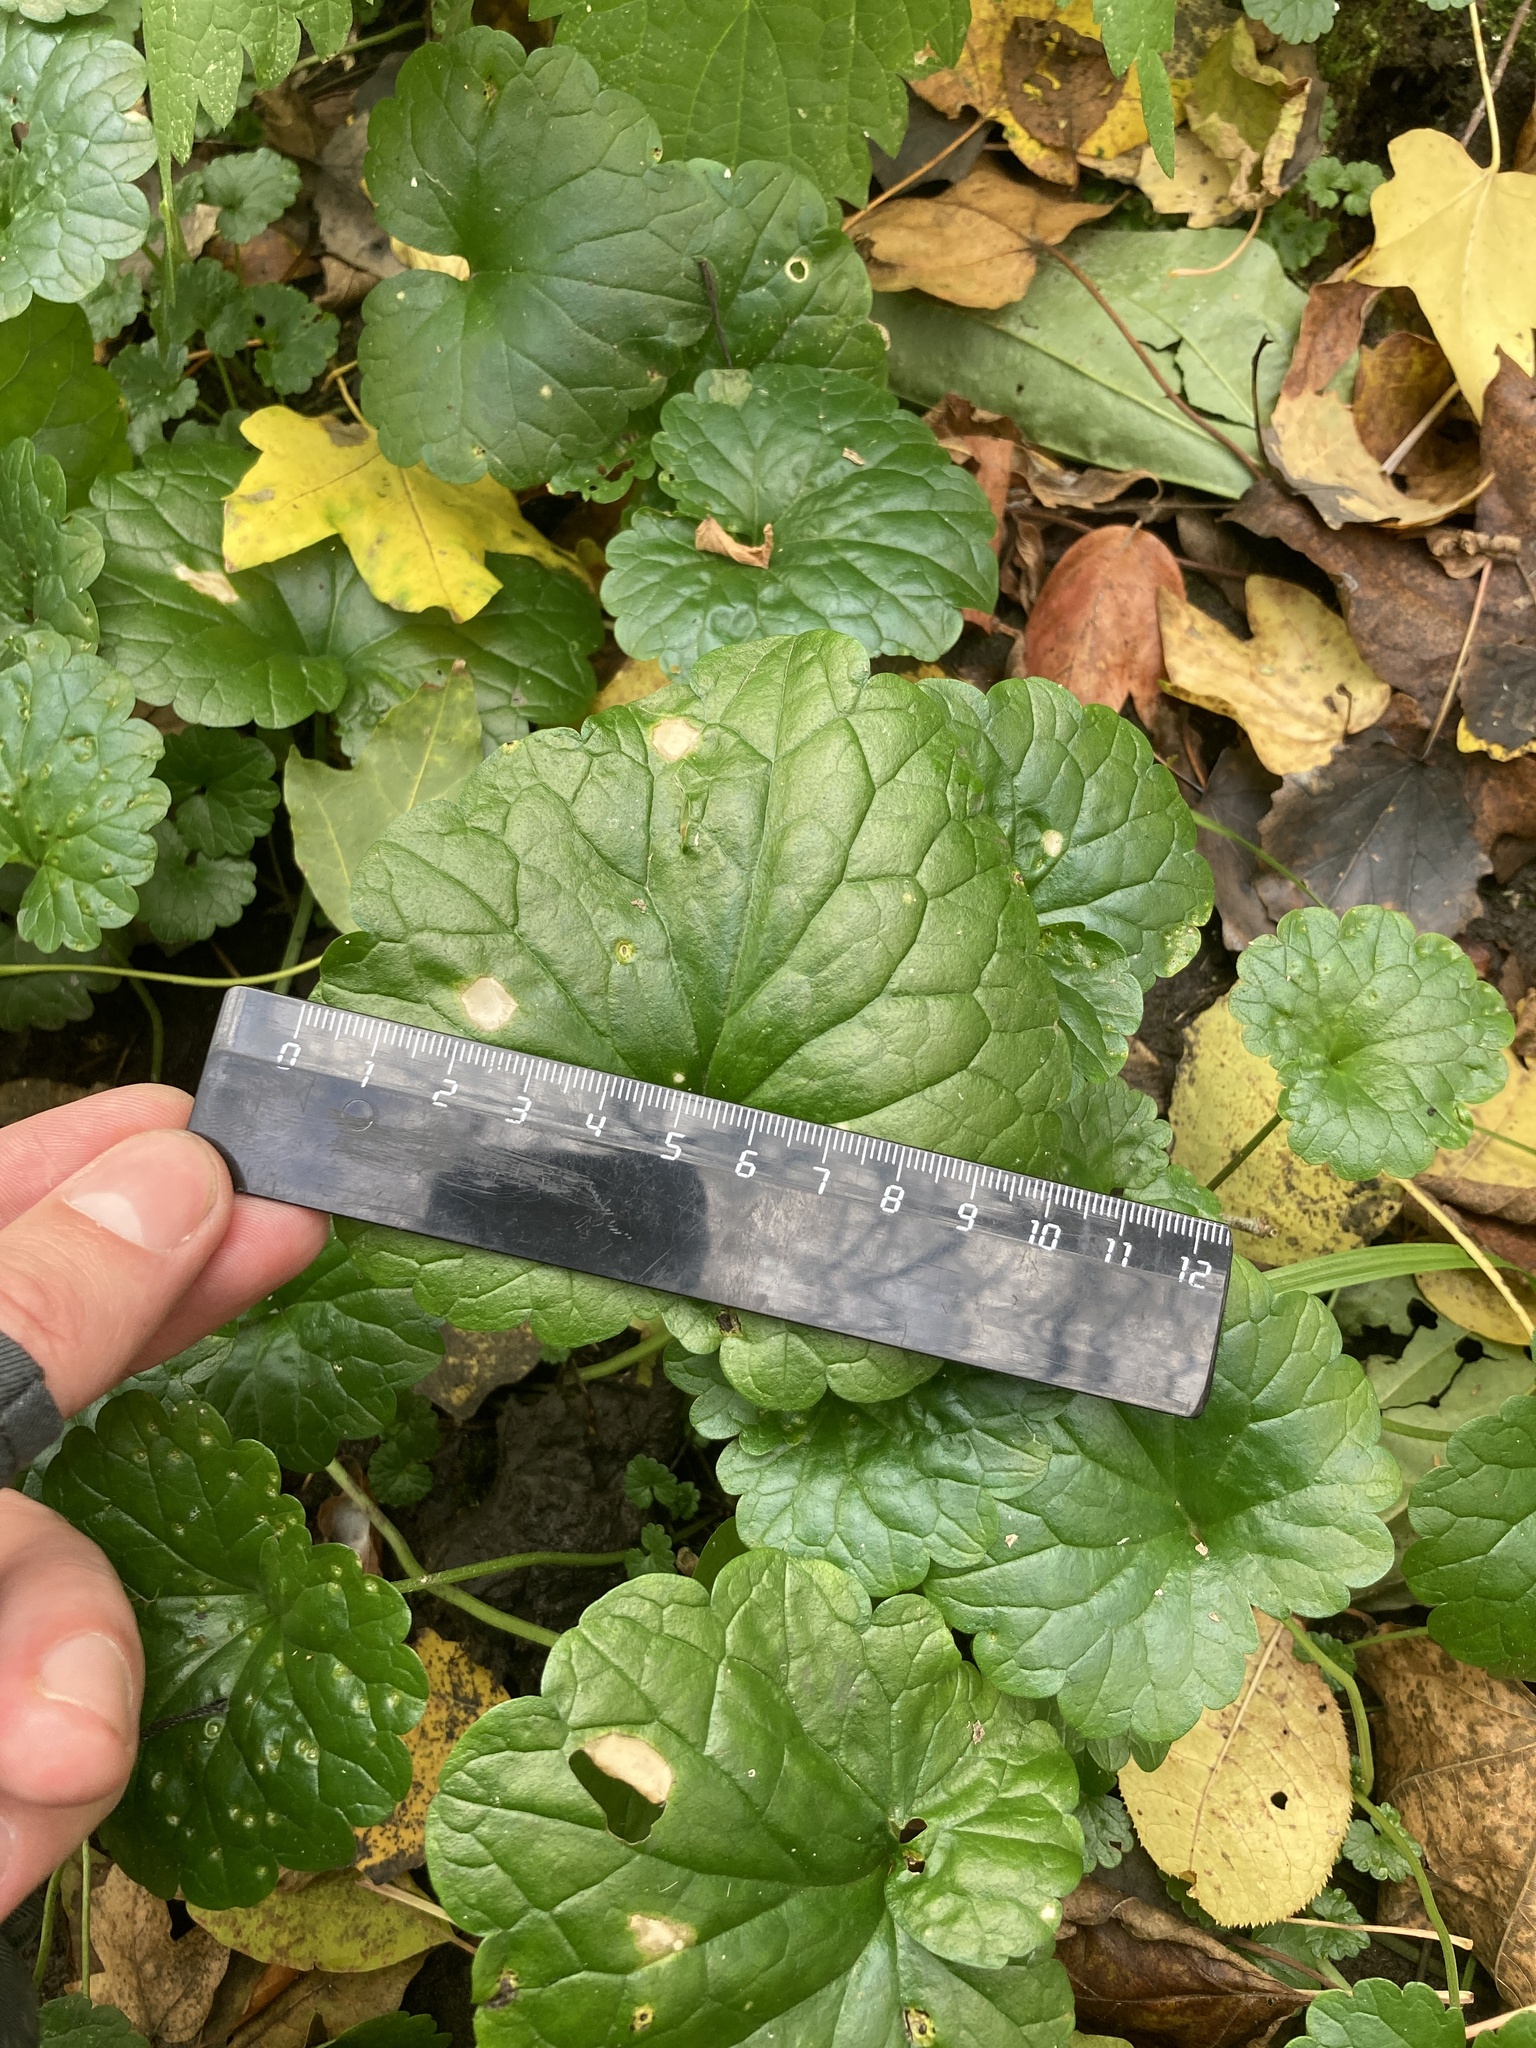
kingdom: Plantae
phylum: Tracheophyta
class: Magnoliopsida
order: Lamiales
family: Lamiaceae
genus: Glechoma
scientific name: Glechoma hederacea
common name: Ground ivy
